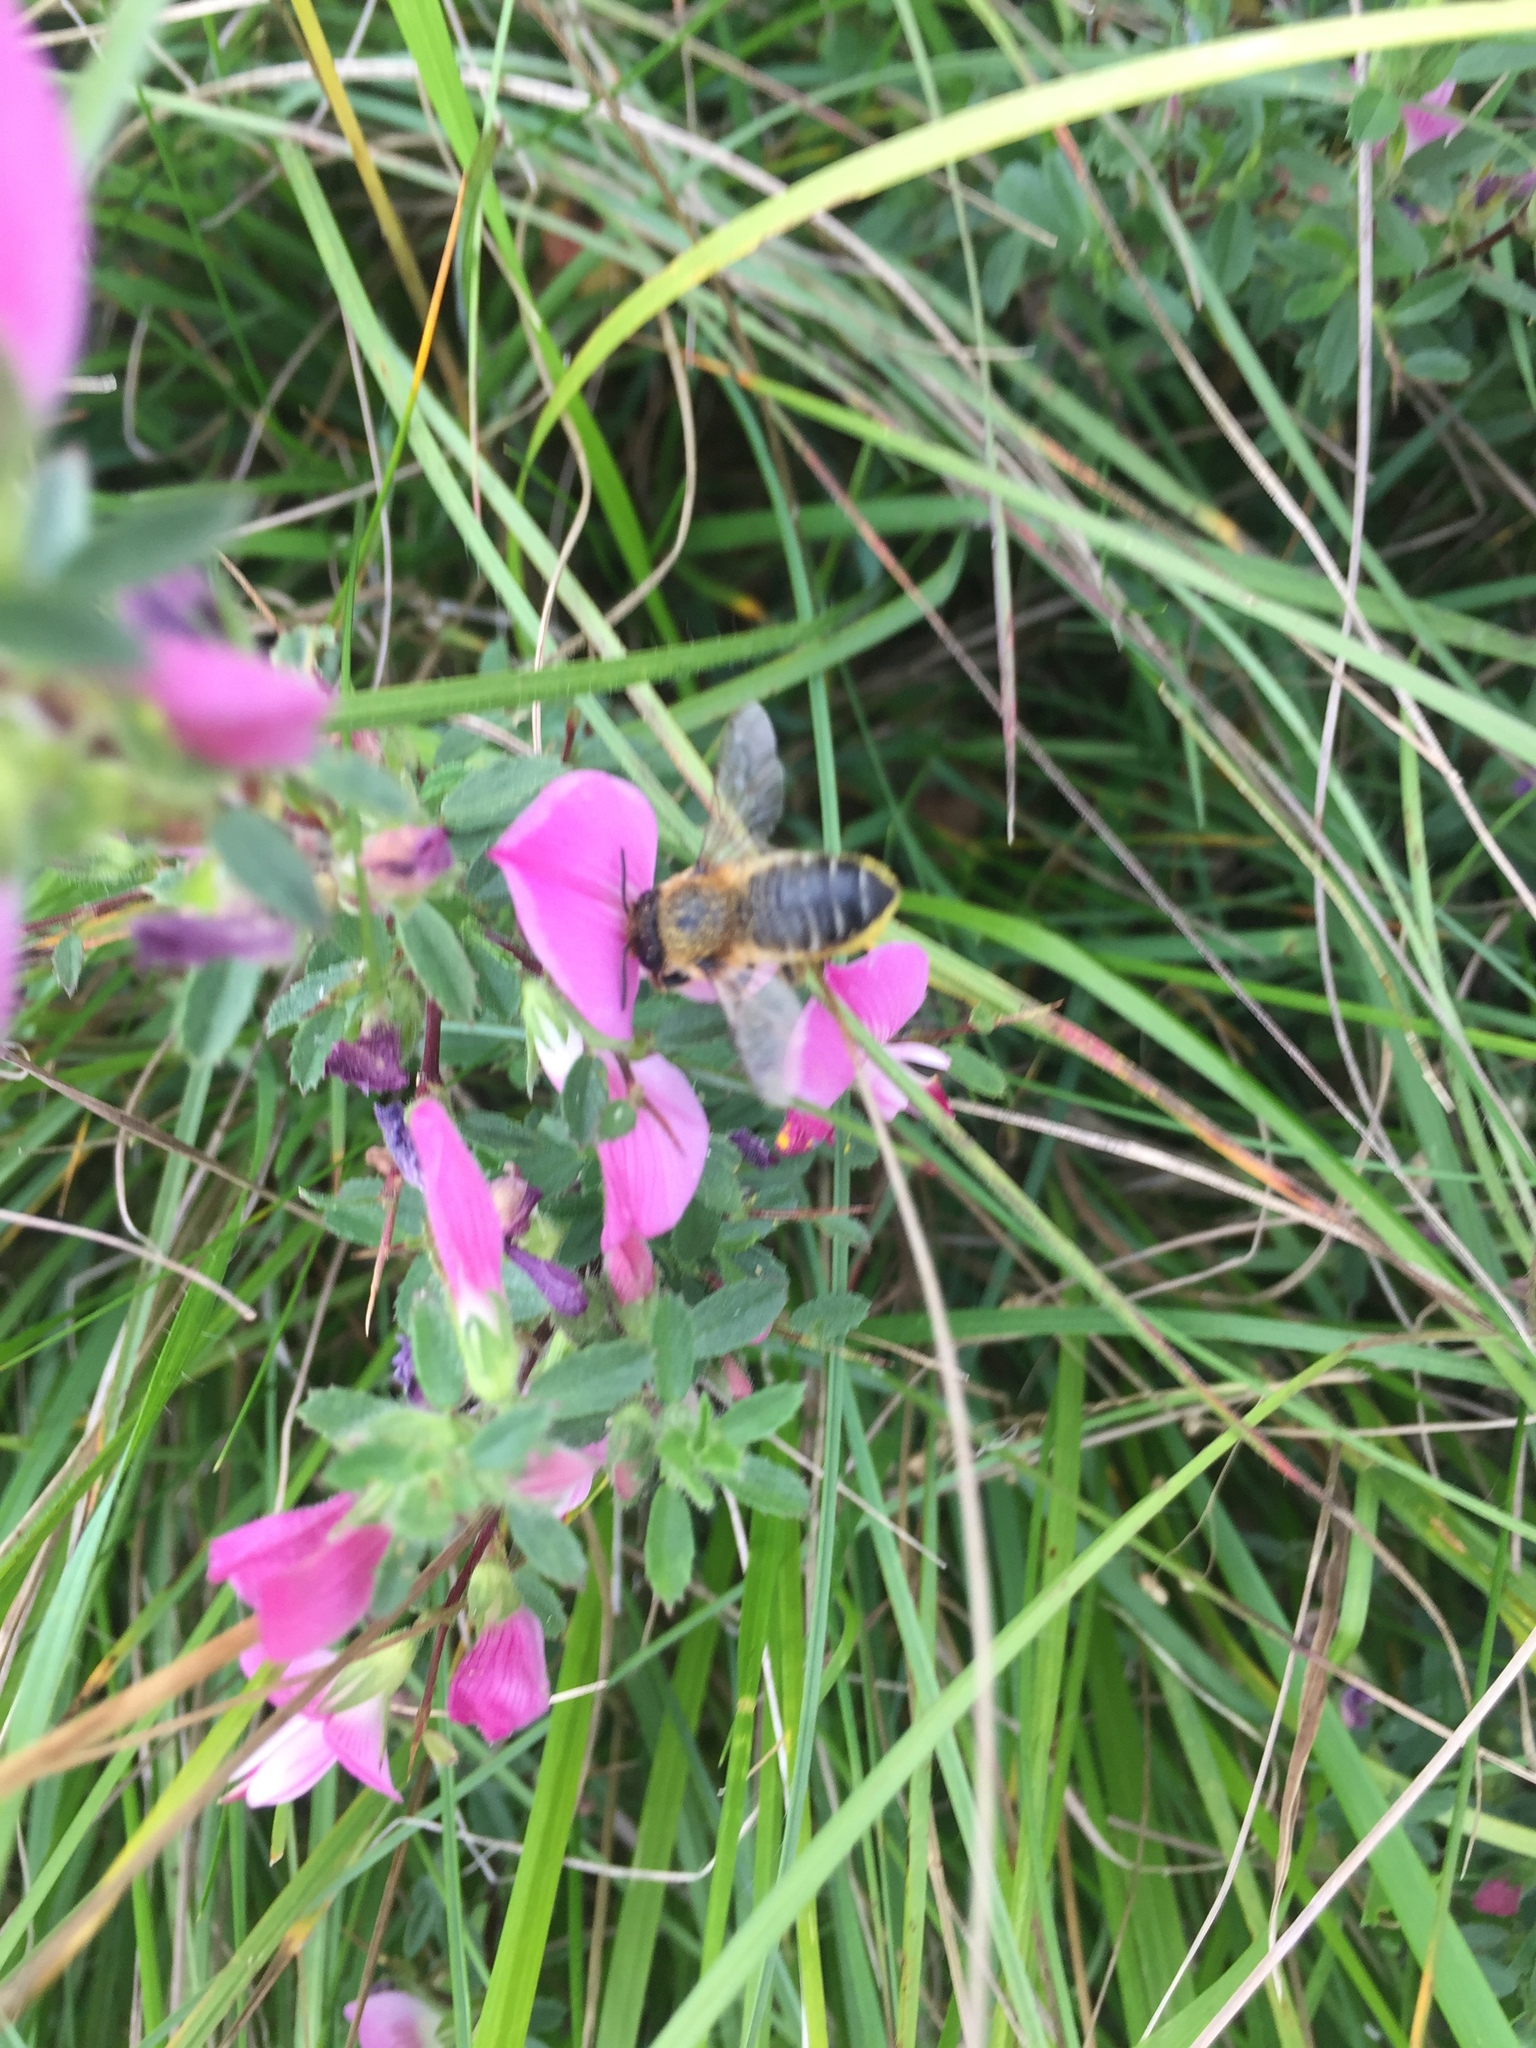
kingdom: Plantae
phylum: Tracheophyta
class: Magnoliopsida
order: Fabales
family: Fabaceae
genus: Ononis
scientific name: Ononis spinosa
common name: Spiny restharrow
